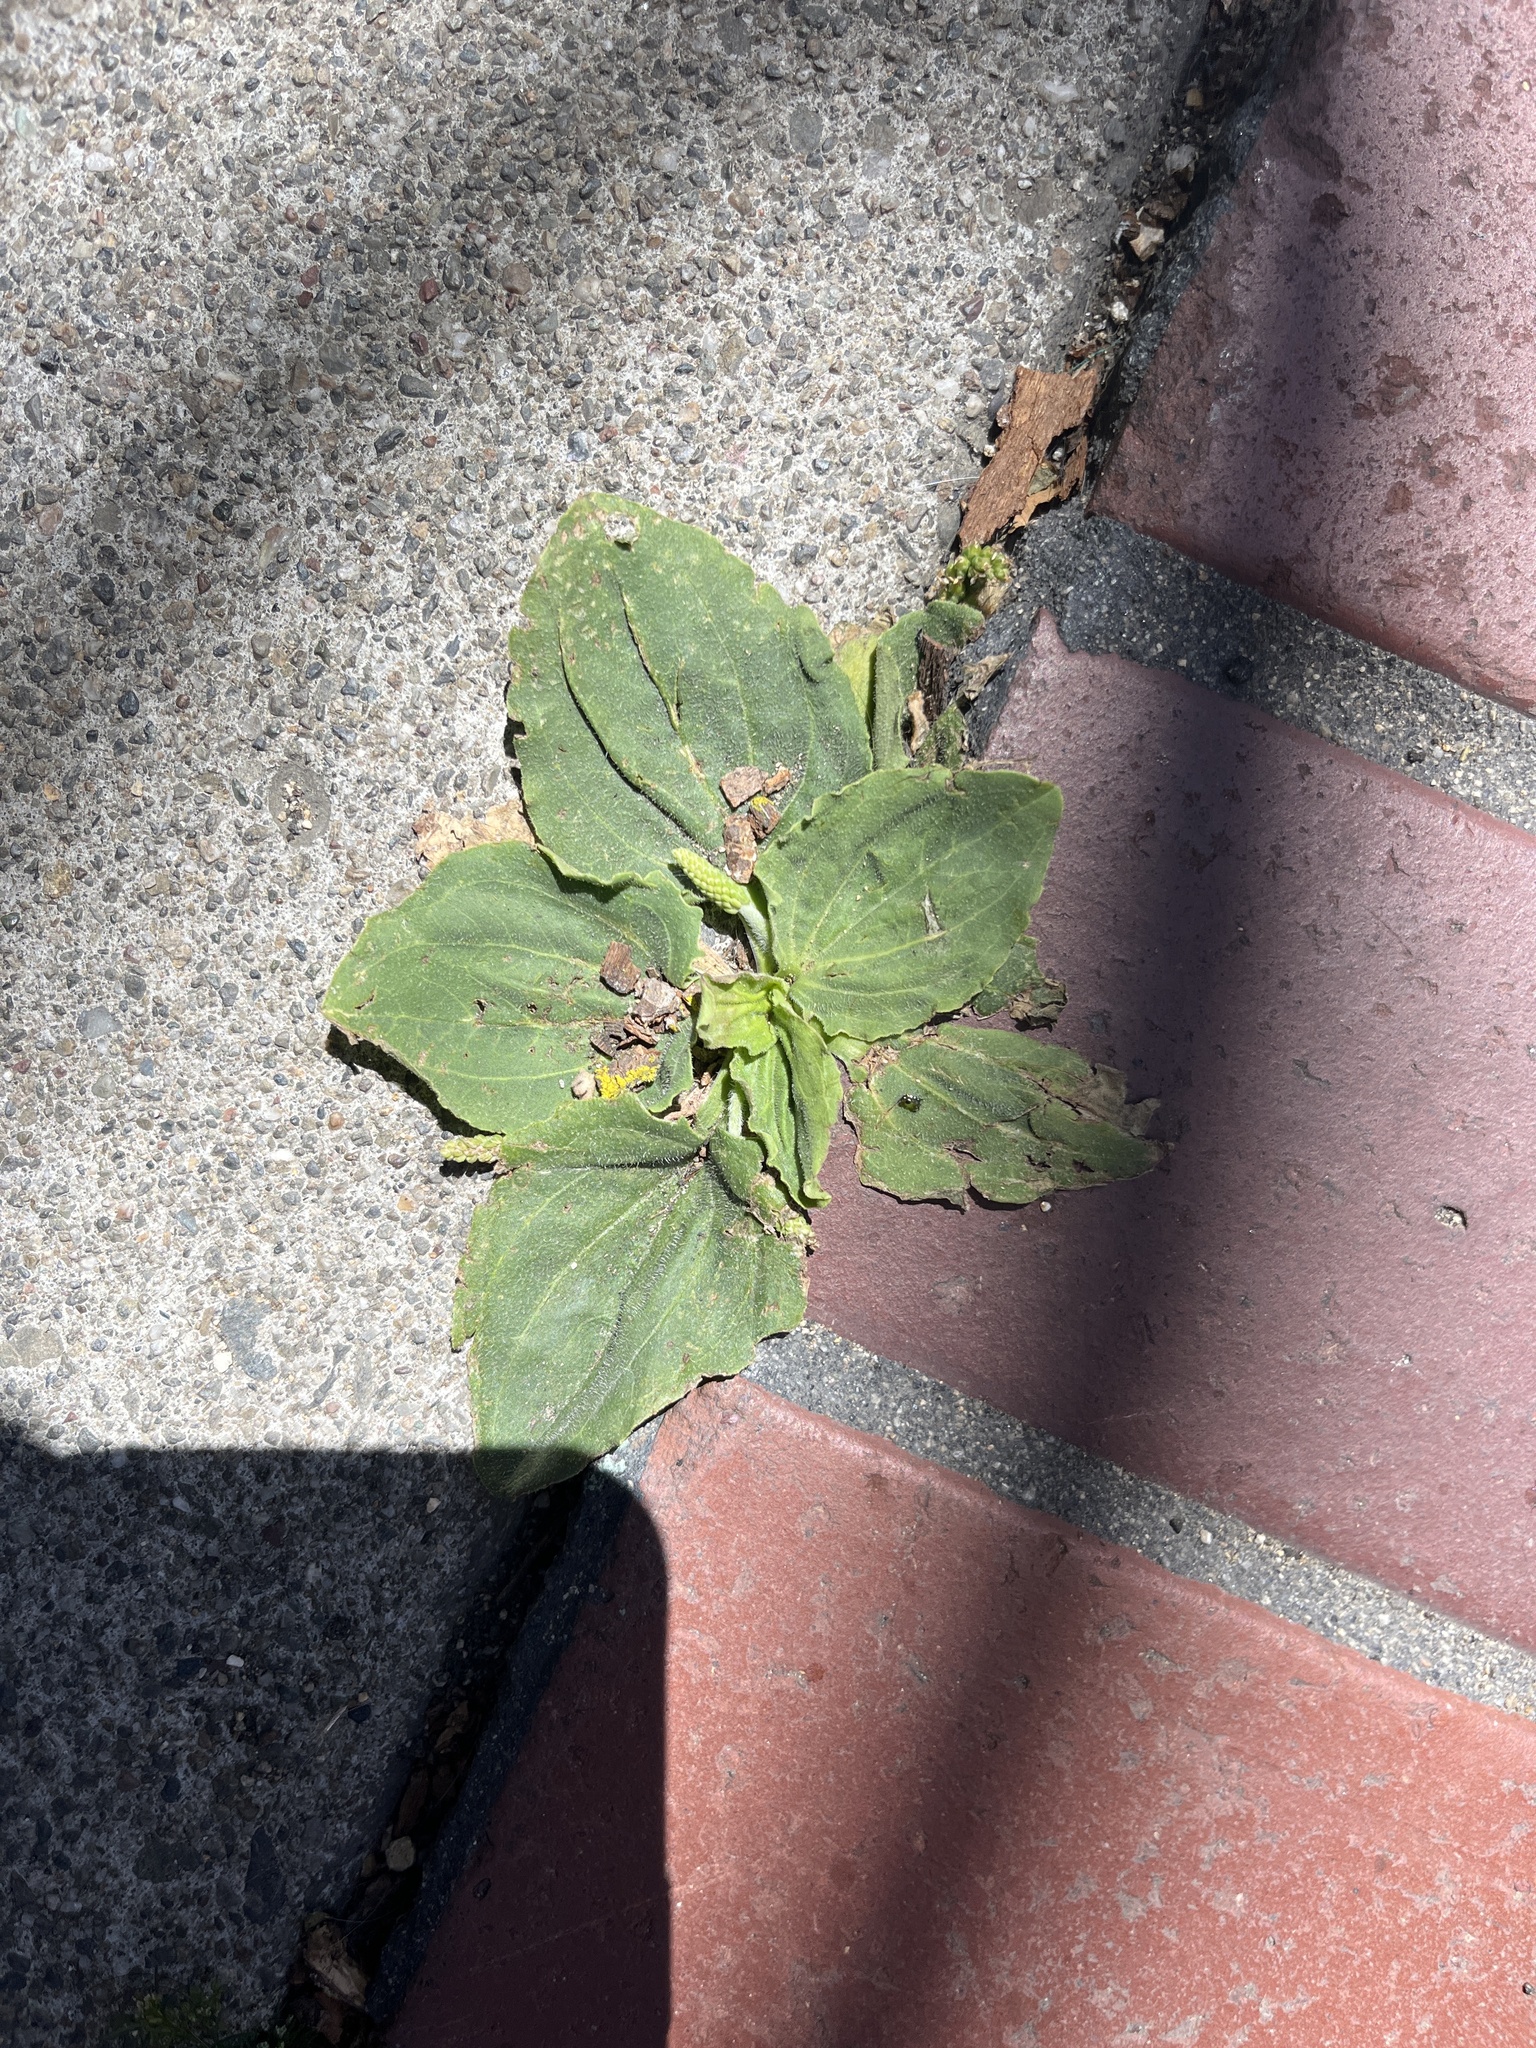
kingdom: Plantae
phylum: Tracheophyta
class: Magnoliopsida
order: Lamiales
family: Plantaginaceae
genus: Plantago
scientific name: Plantago major
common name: Common plantain
